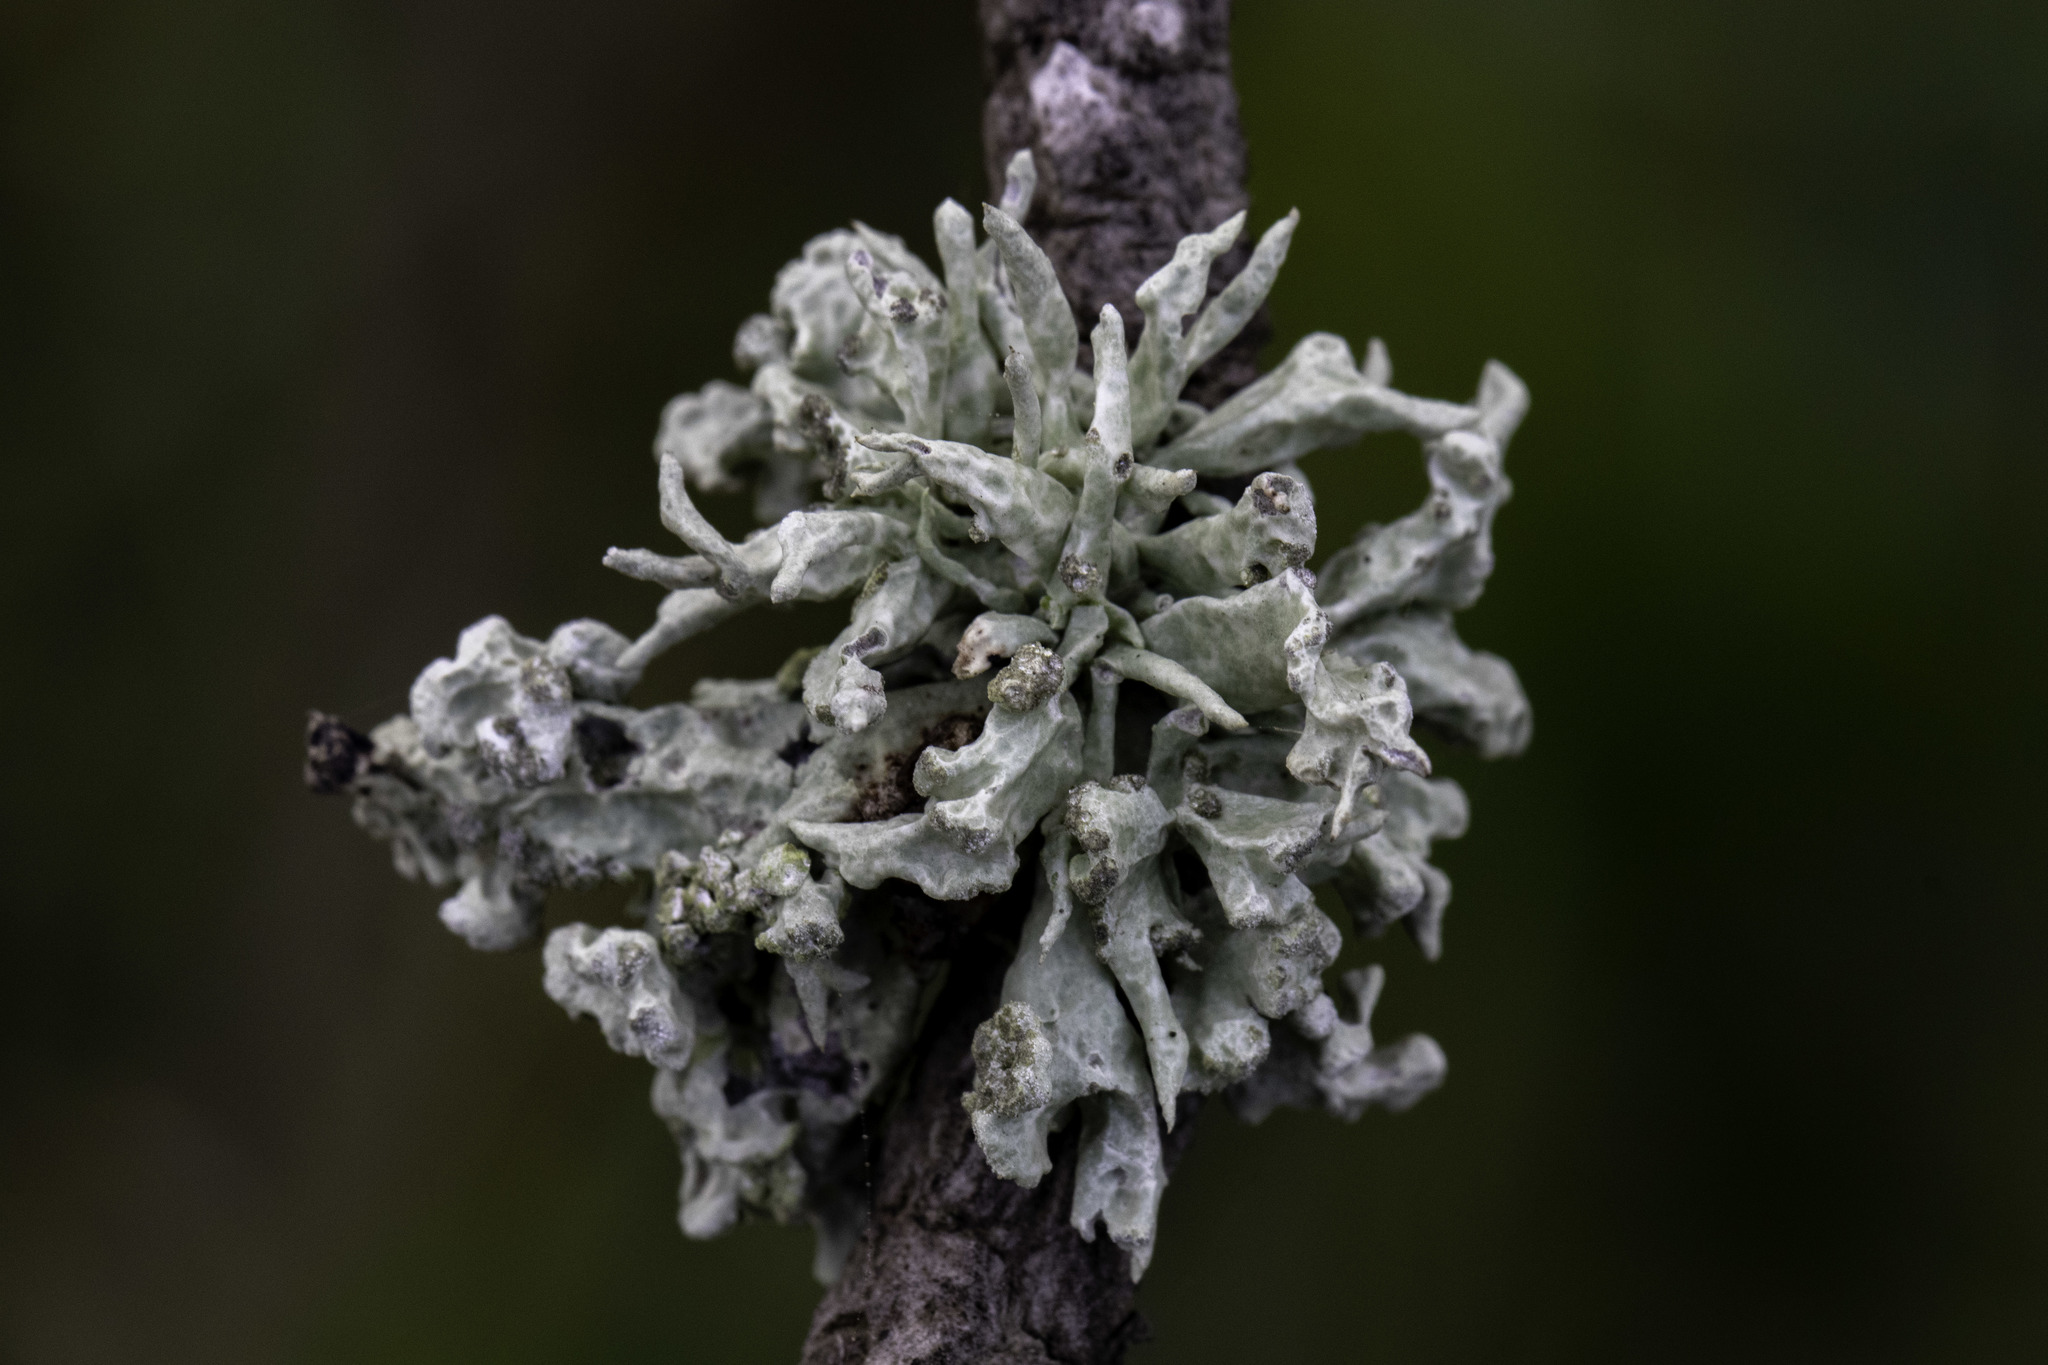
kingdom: Fungi
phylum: Ascomycota
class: Lecanoromycetes
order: Lecanorales
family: Ramalinaceae
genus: Niebla
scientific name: Niebla cephalota
